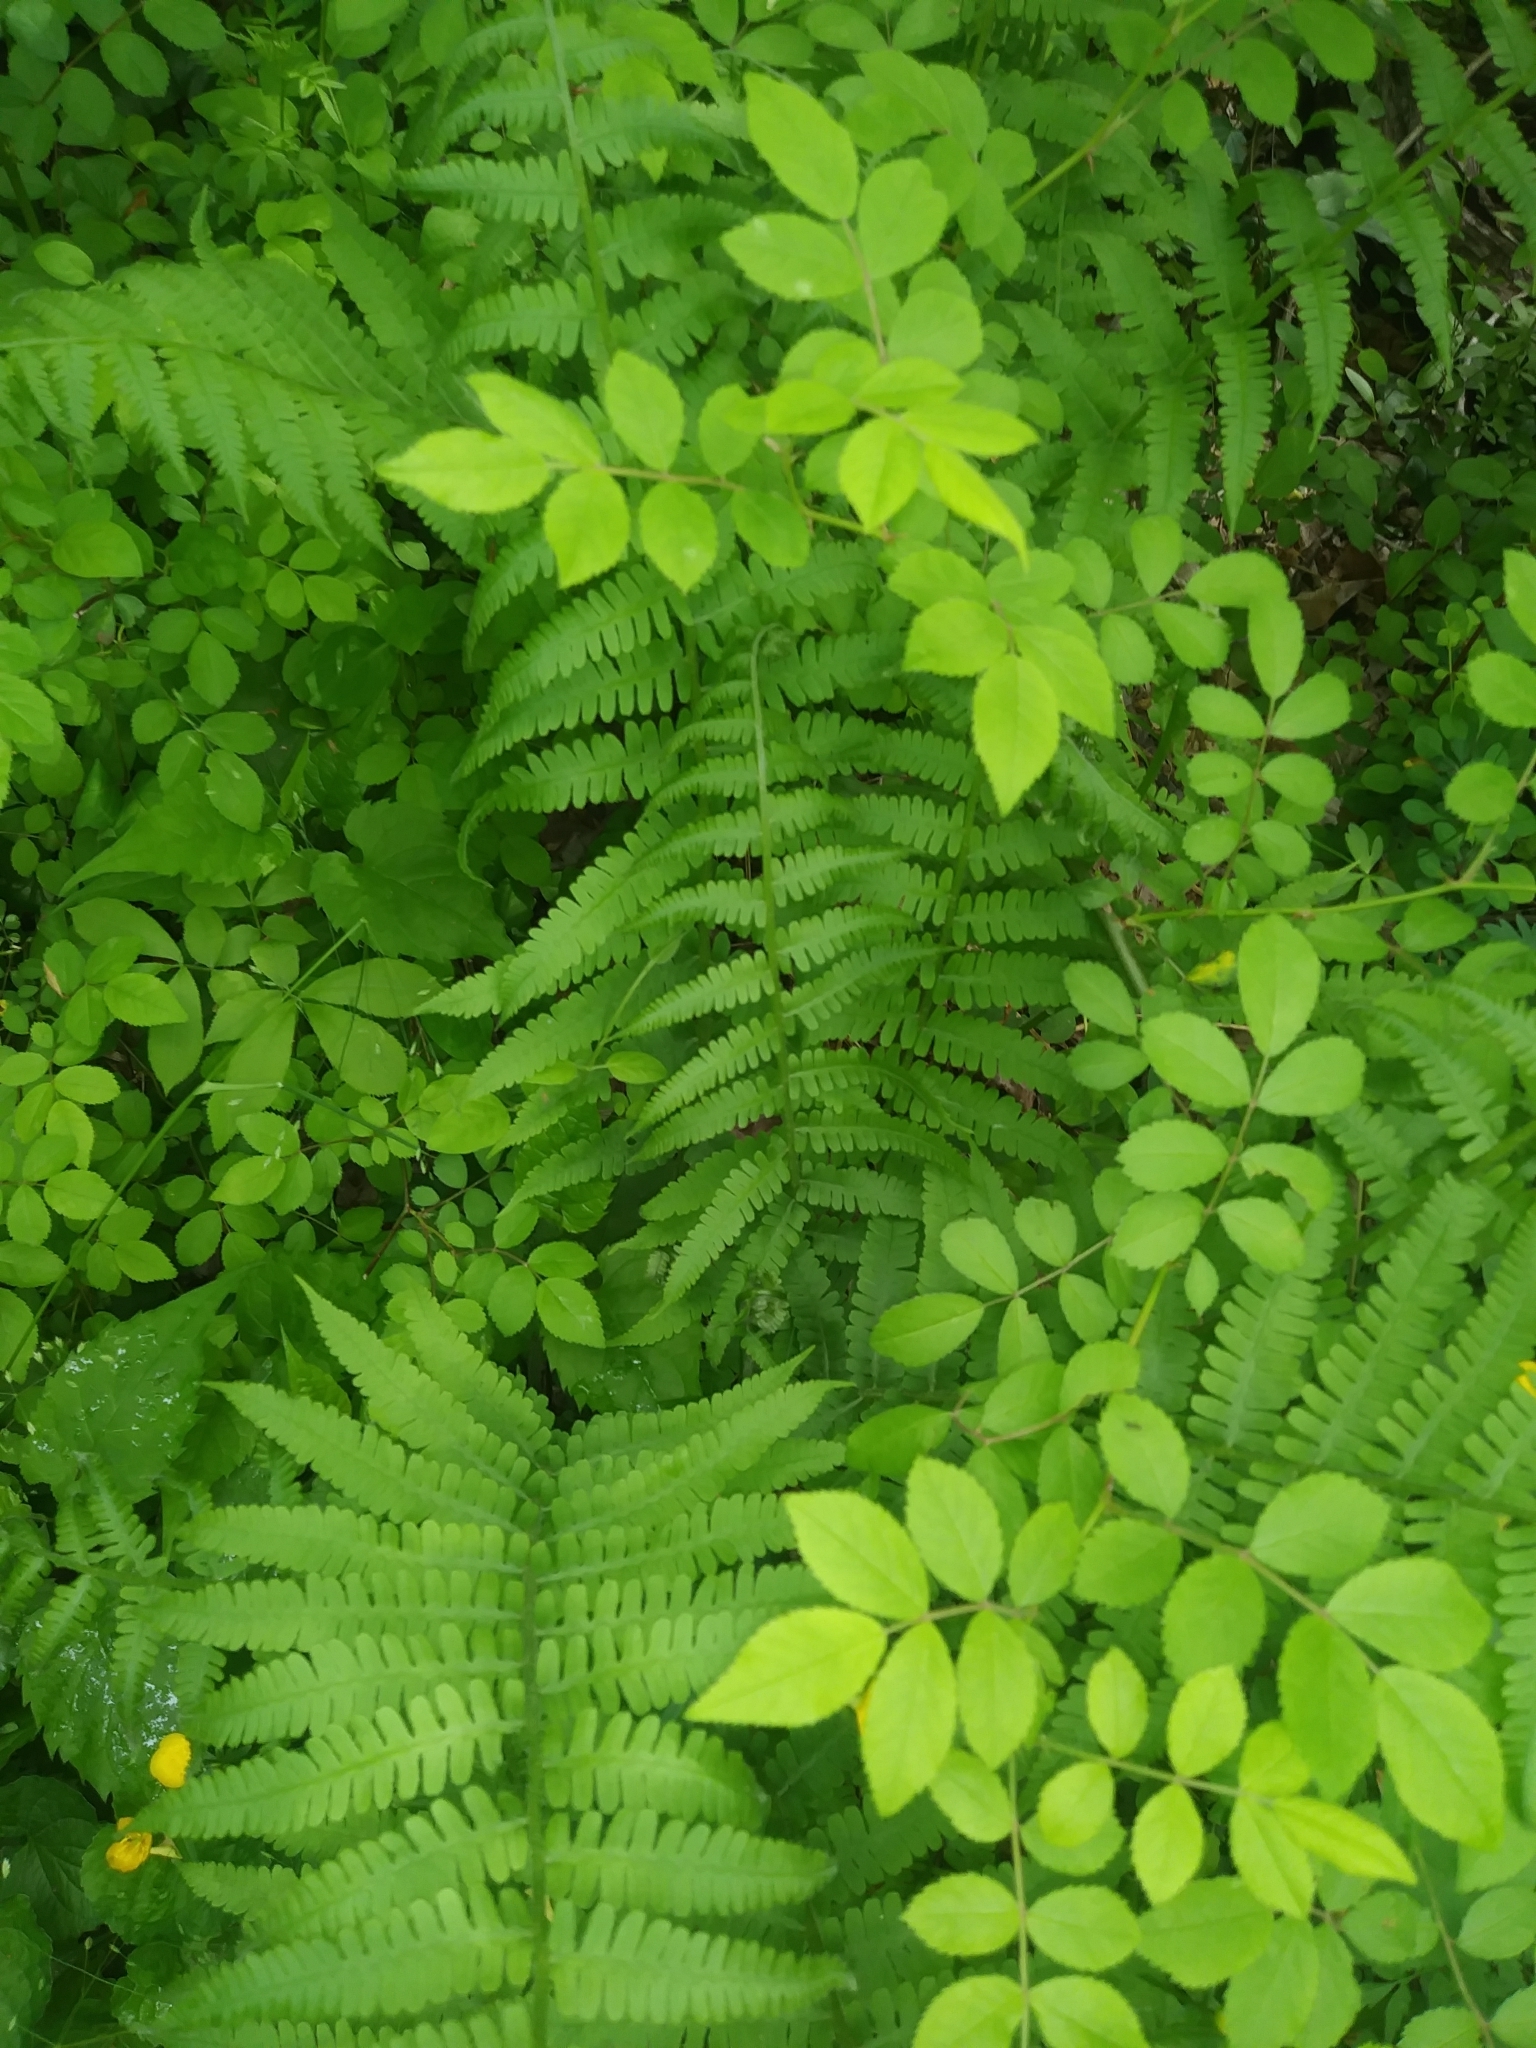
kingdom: Plantae
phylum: Tracheophyta
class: Polypodiopsida
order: Polypodiales
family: Athyriaceae
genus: Deparia
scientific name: Deparia acrostichoides
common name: Silver false spleenwort
